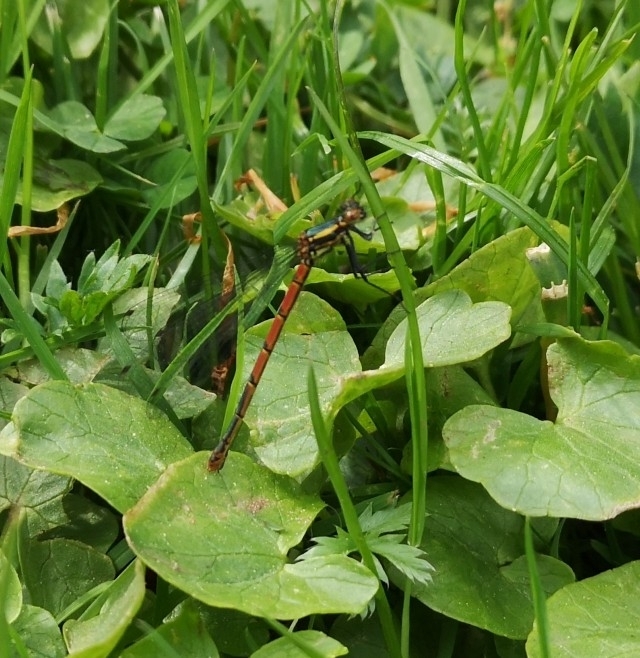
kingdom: Animalia
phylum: Arthropoda
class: Insecta
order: Odonata
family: Coenagrionidae
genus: Pyrrhosoma
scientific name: Pyrrhosoma nymphula
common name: Large red damsel
